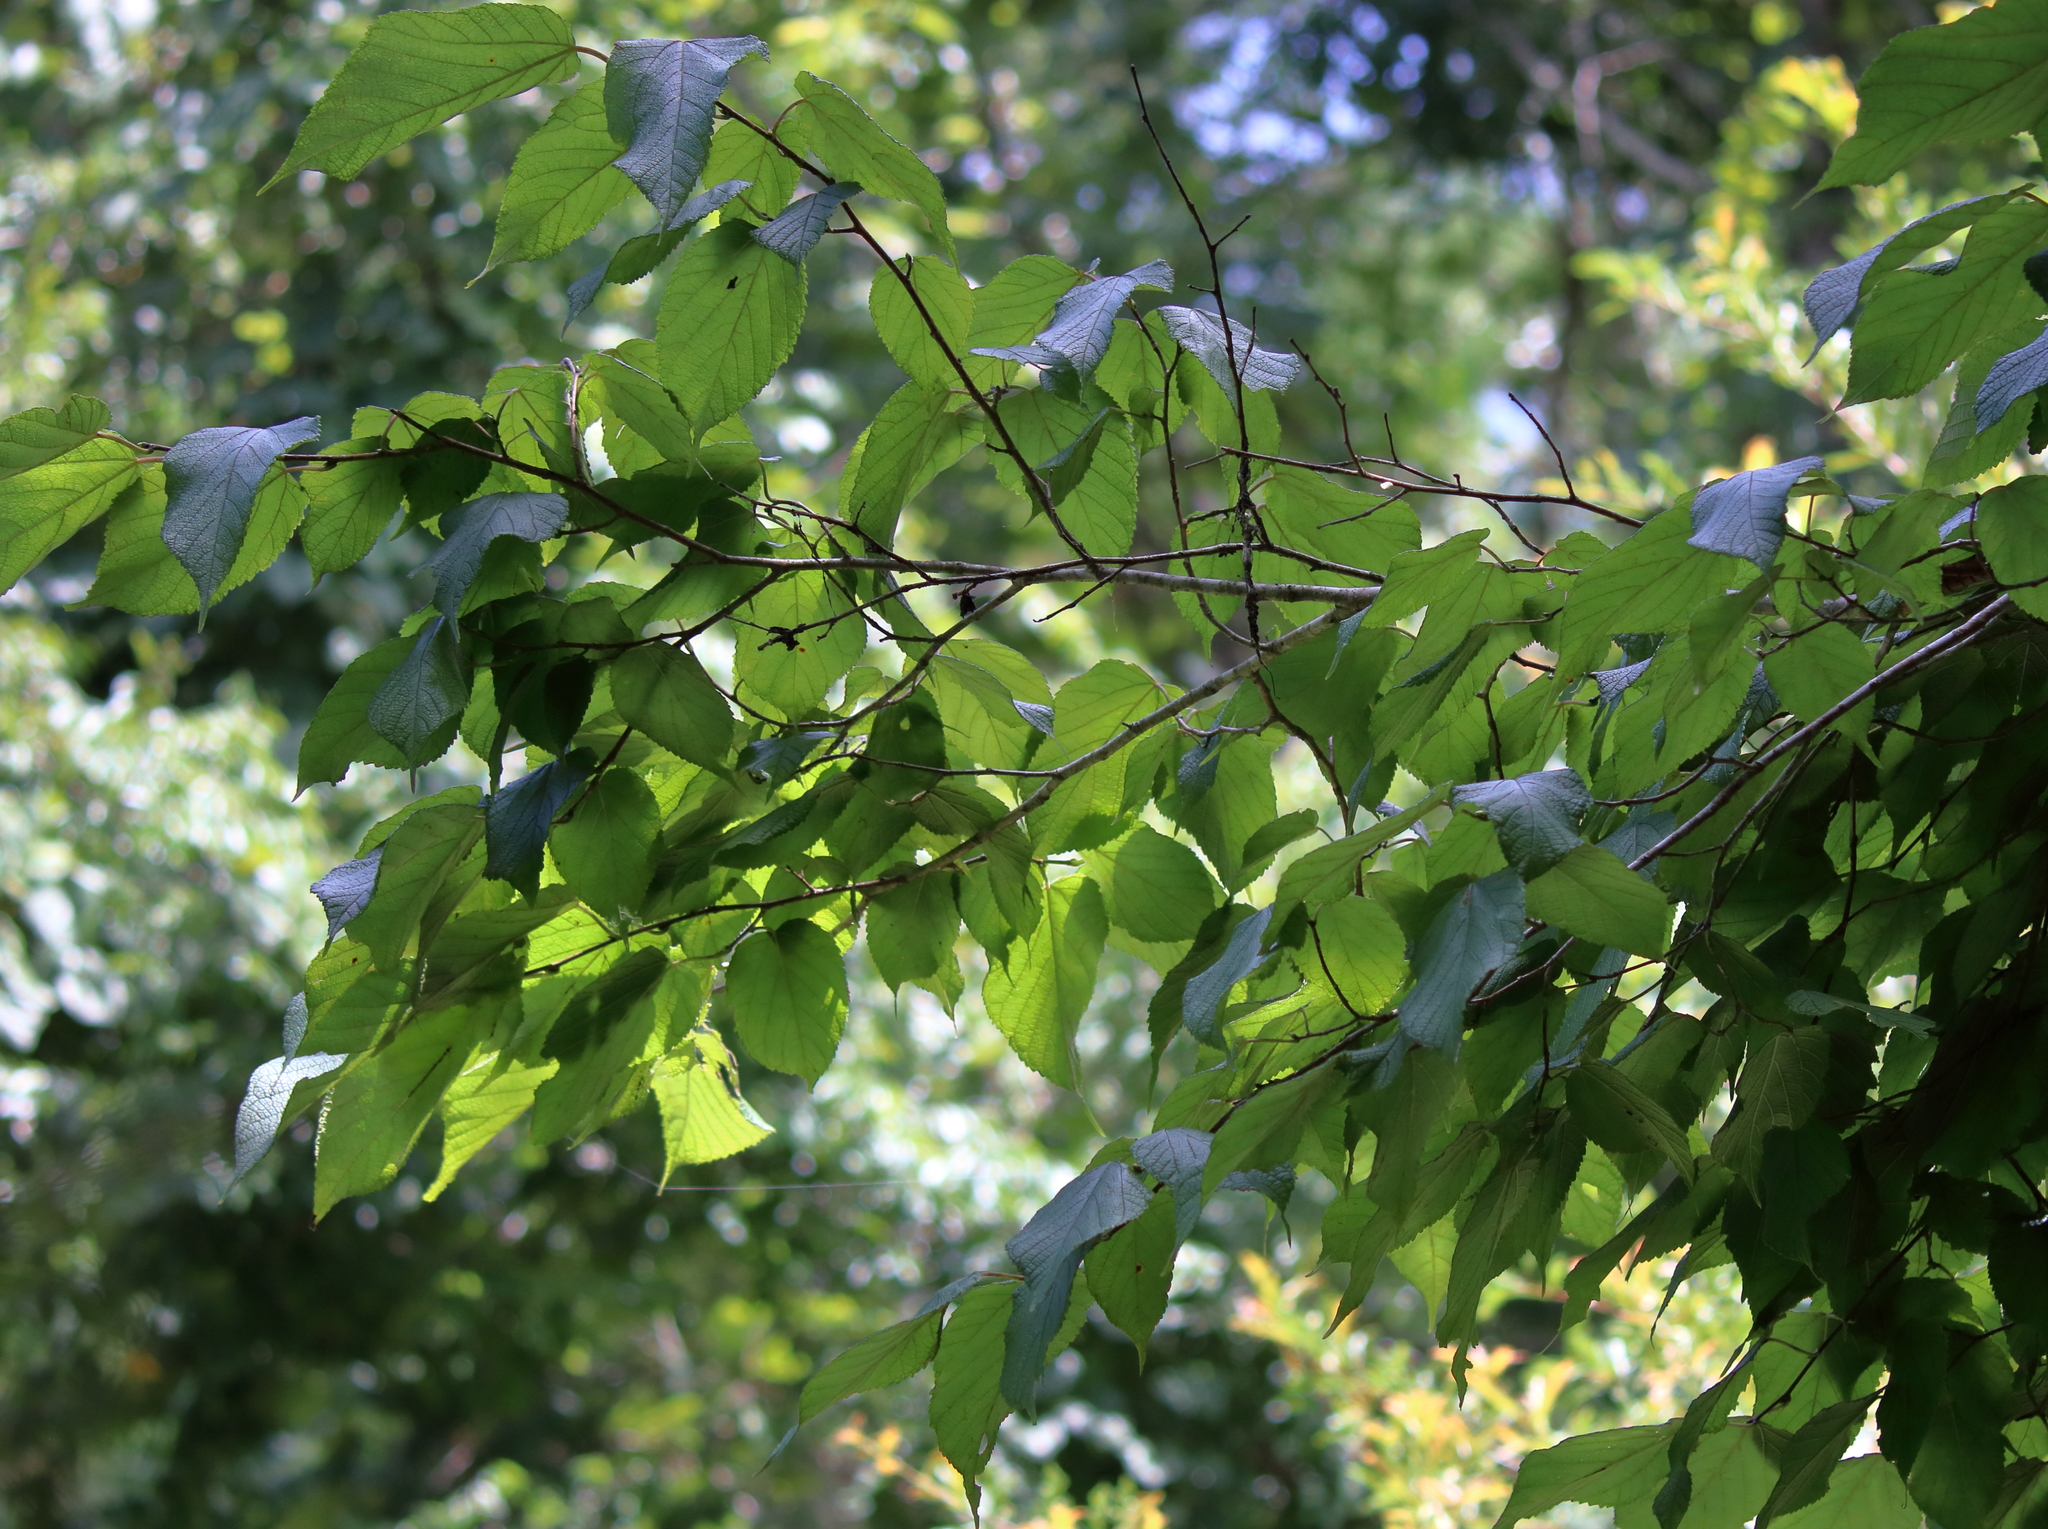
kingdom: Plantae
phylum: Tracheophyta
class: Magnoliopsida
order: Rosales
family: Moraceae
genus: Morus
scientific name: Morus rubra
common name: Red mulberry
